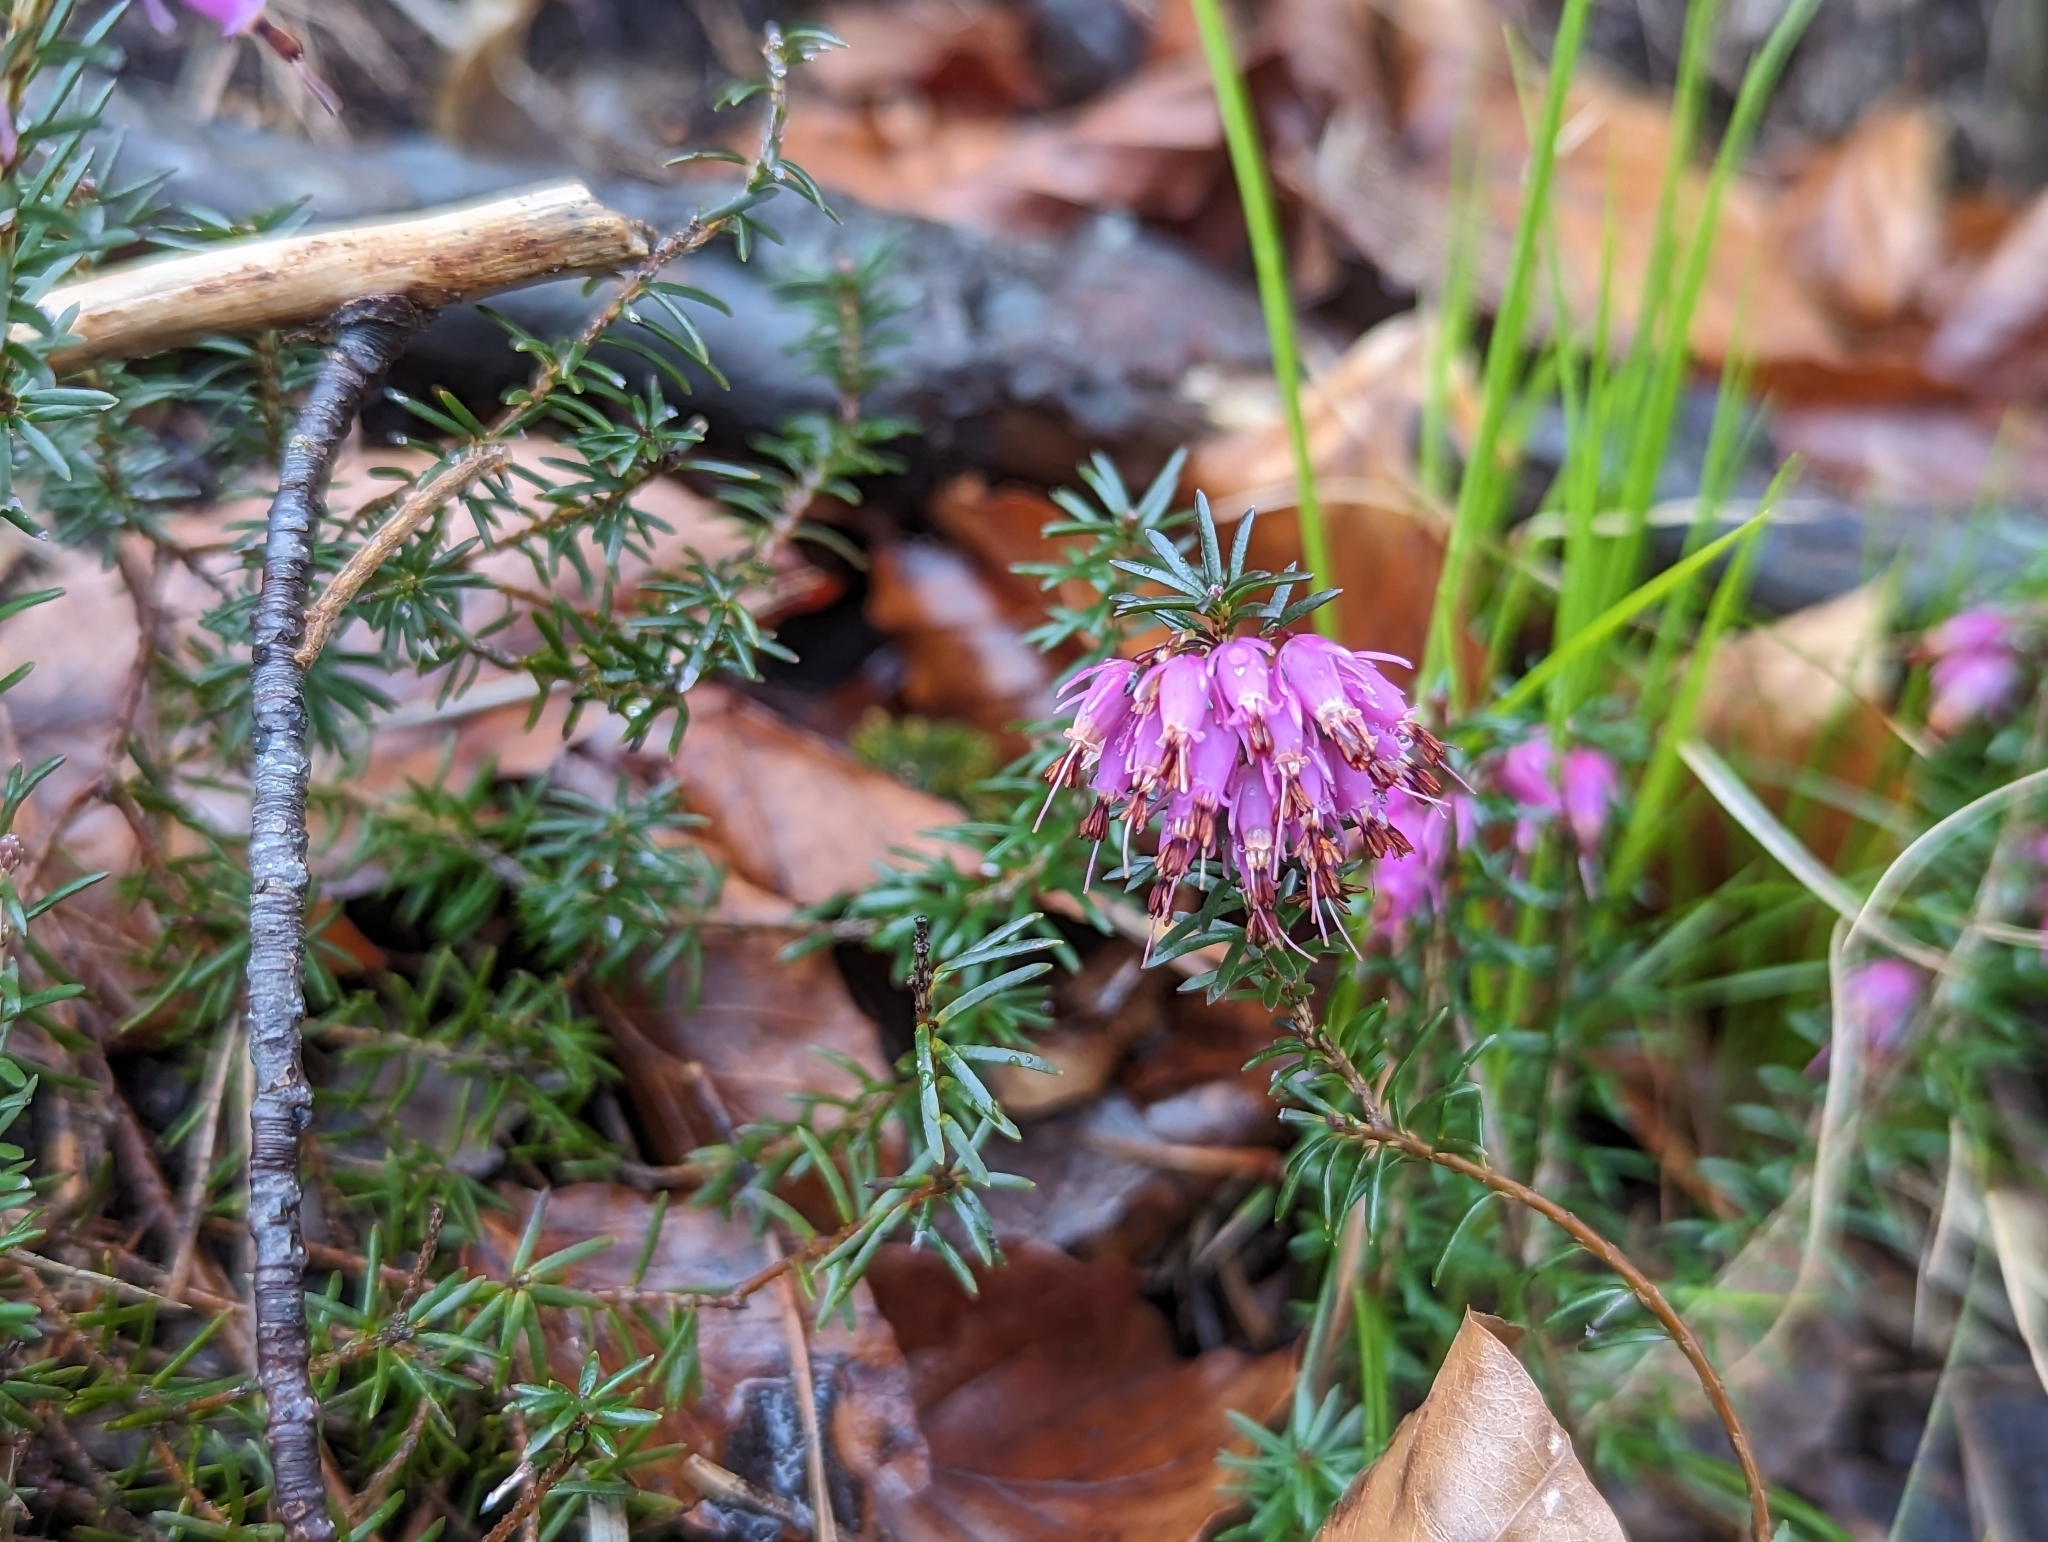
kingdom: Plantae
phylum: Tracheophyta
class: Magnoliopsida
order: Ericales
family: Ericaceae
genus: Erica
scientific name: Erica carnea
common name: Winter heath
